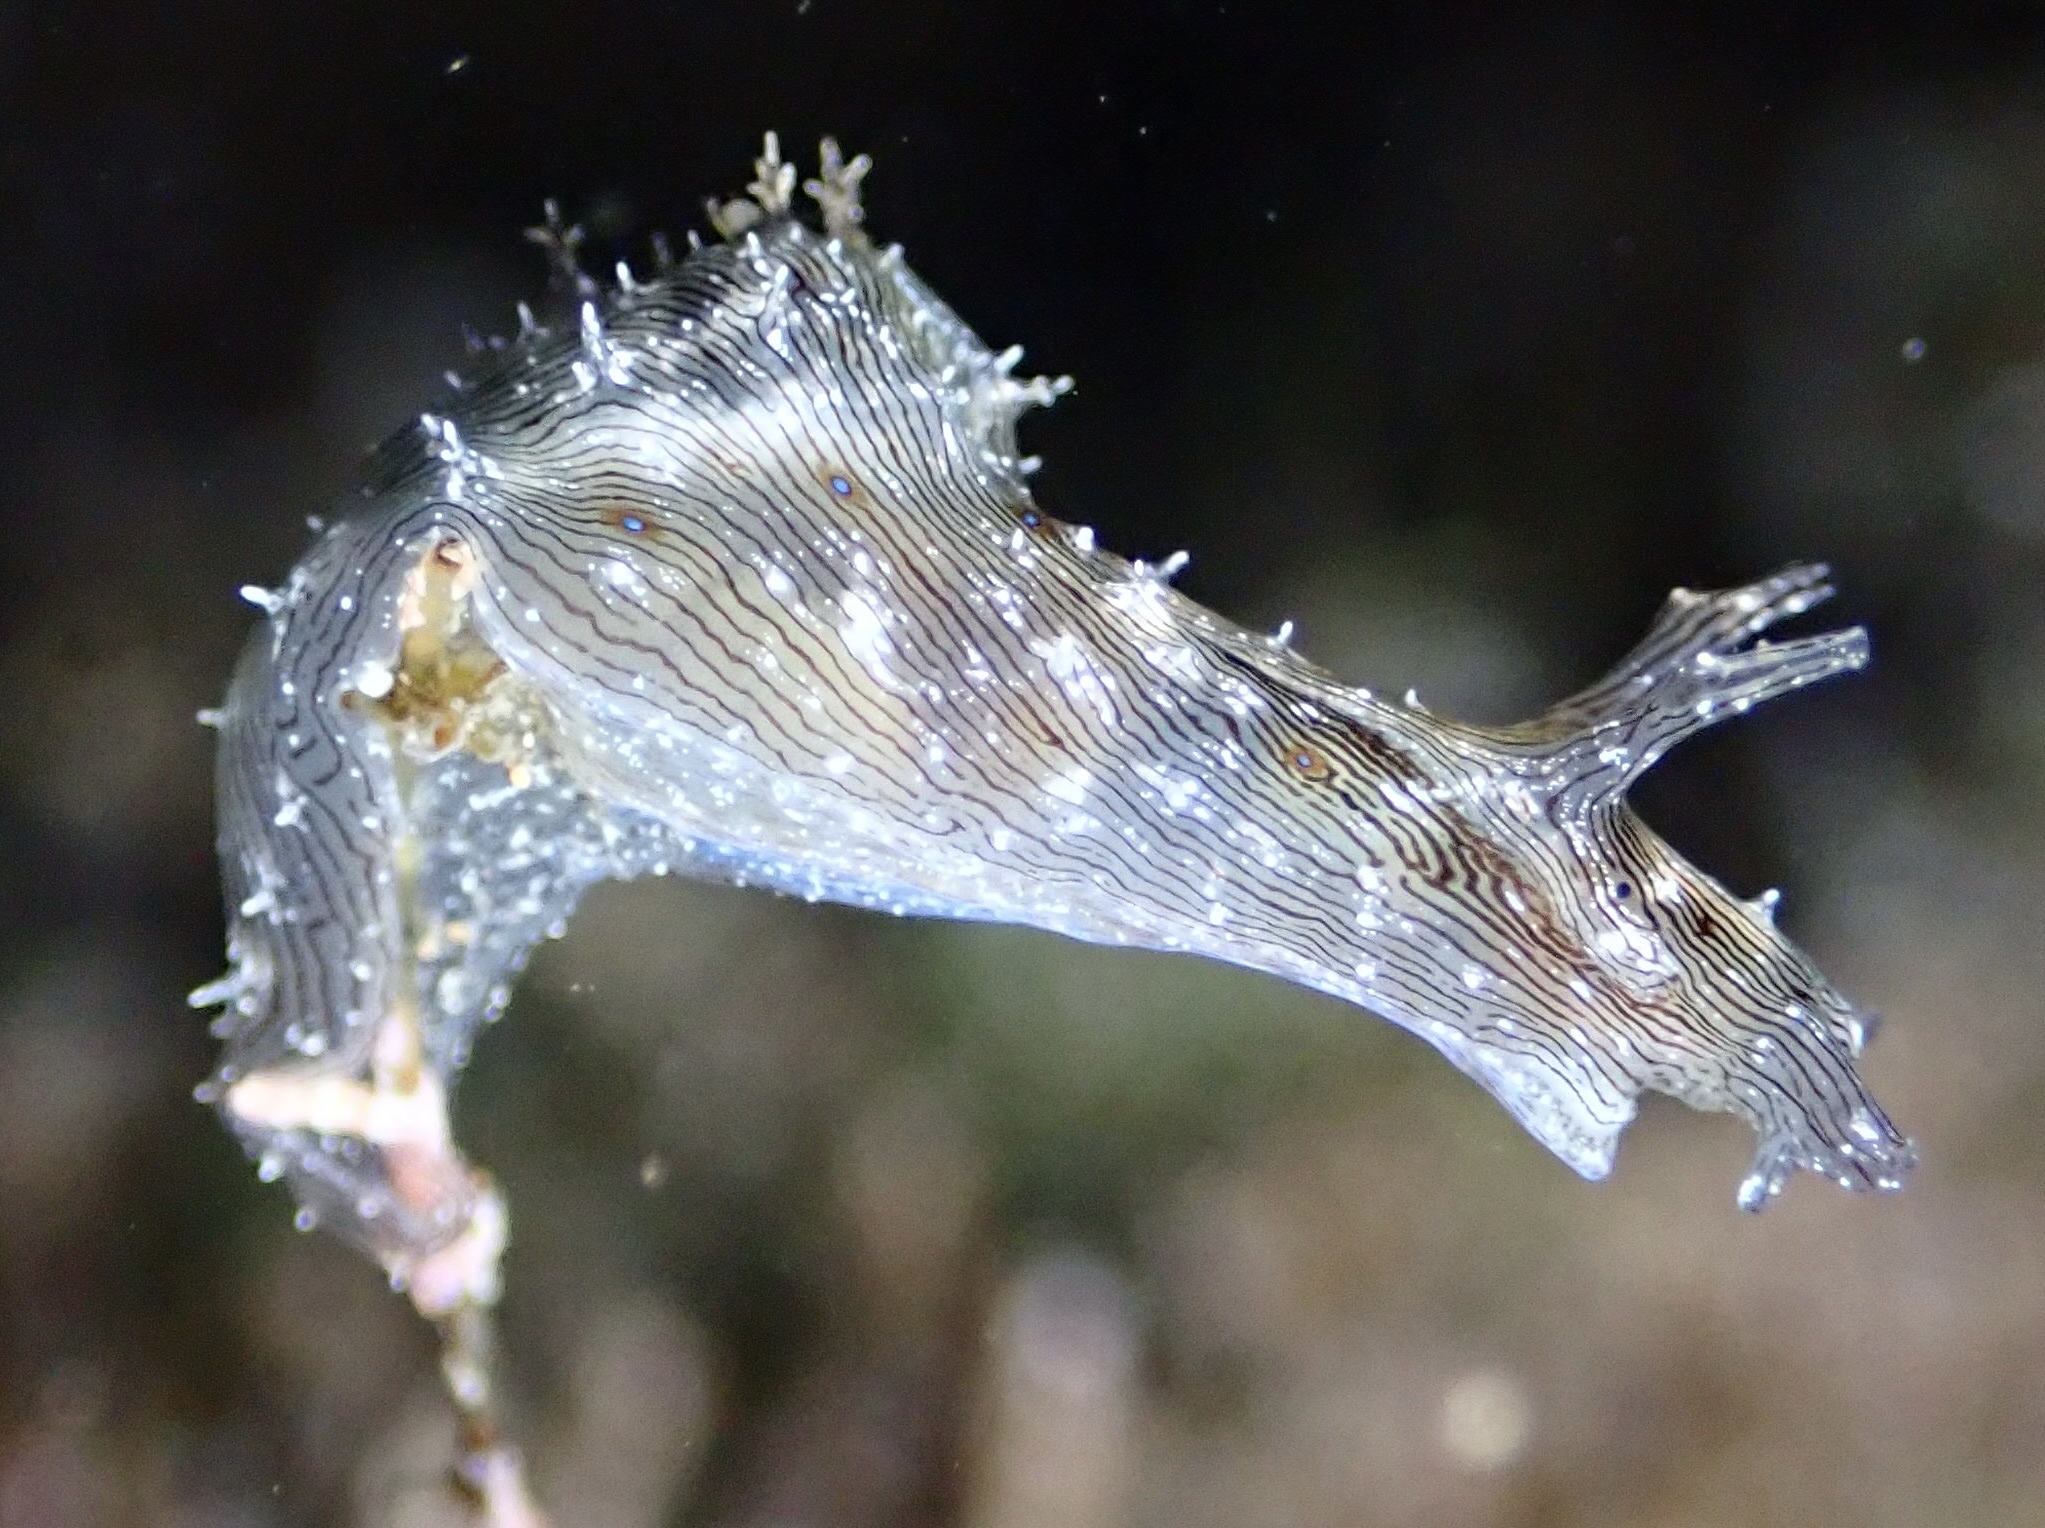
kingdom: Animalia
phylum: Mollusca
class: Gastropoda
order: Aplysiida
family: Aplysiidae
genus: Stylocheilus
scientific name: Stylocheilus striatus
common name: Striated seahare
